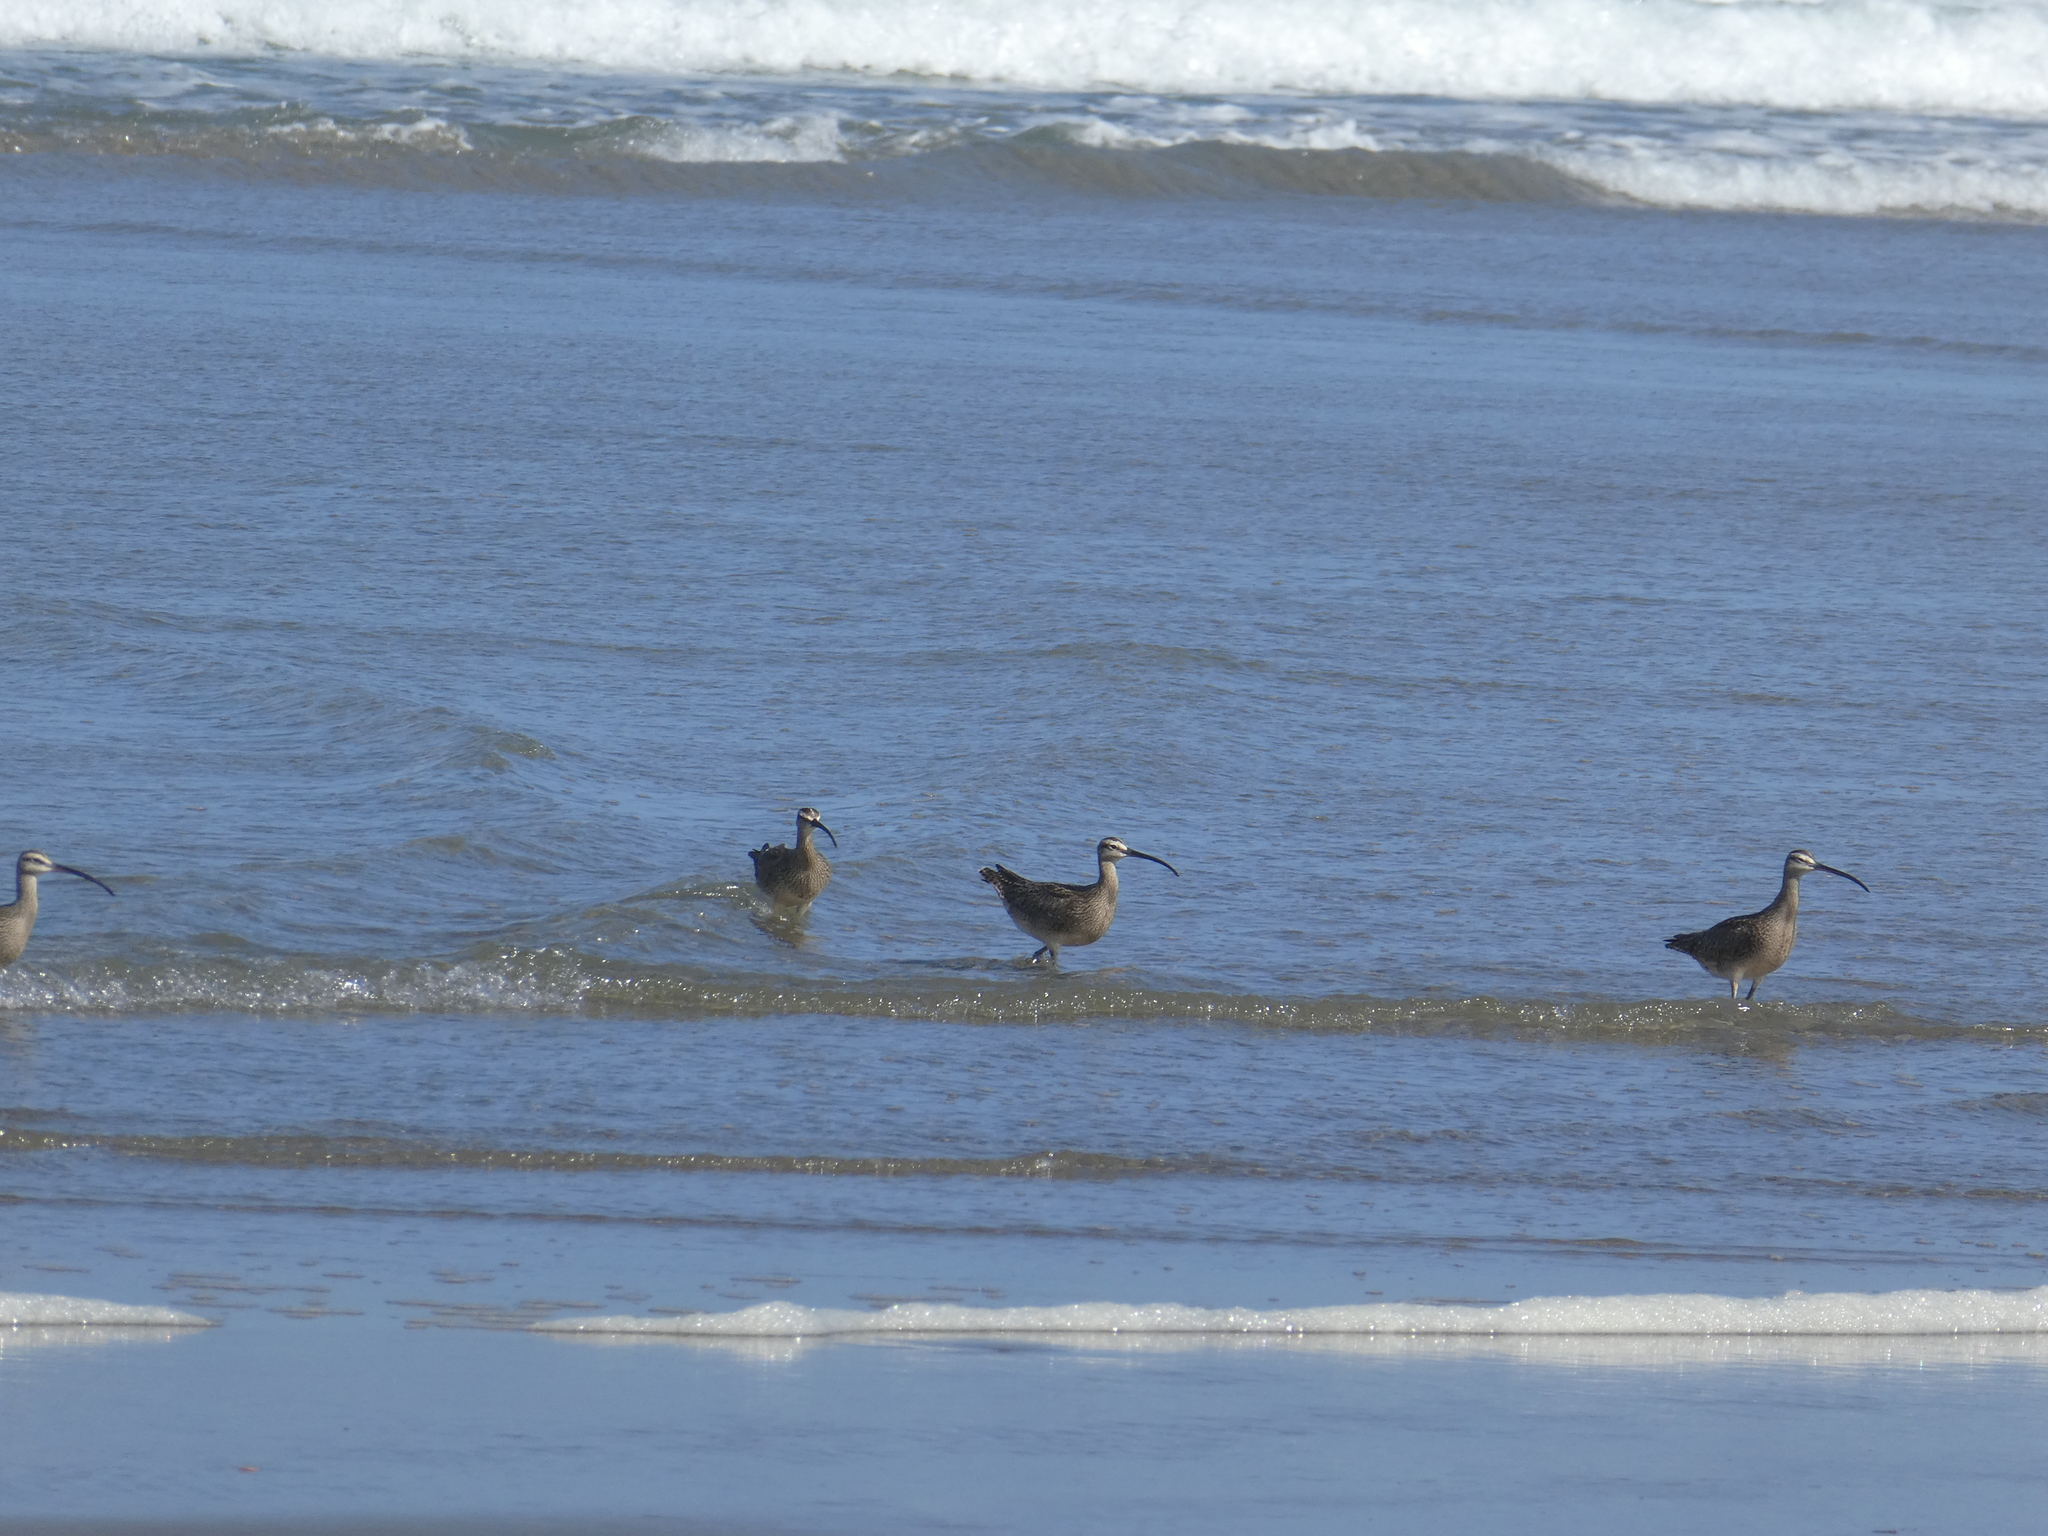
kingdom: Animalia
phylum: Chordata
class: Aves
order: Charadriiformes
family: Scolopacidae
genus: Numenius
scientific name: Numenius phaeopus
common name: Whimbrel
